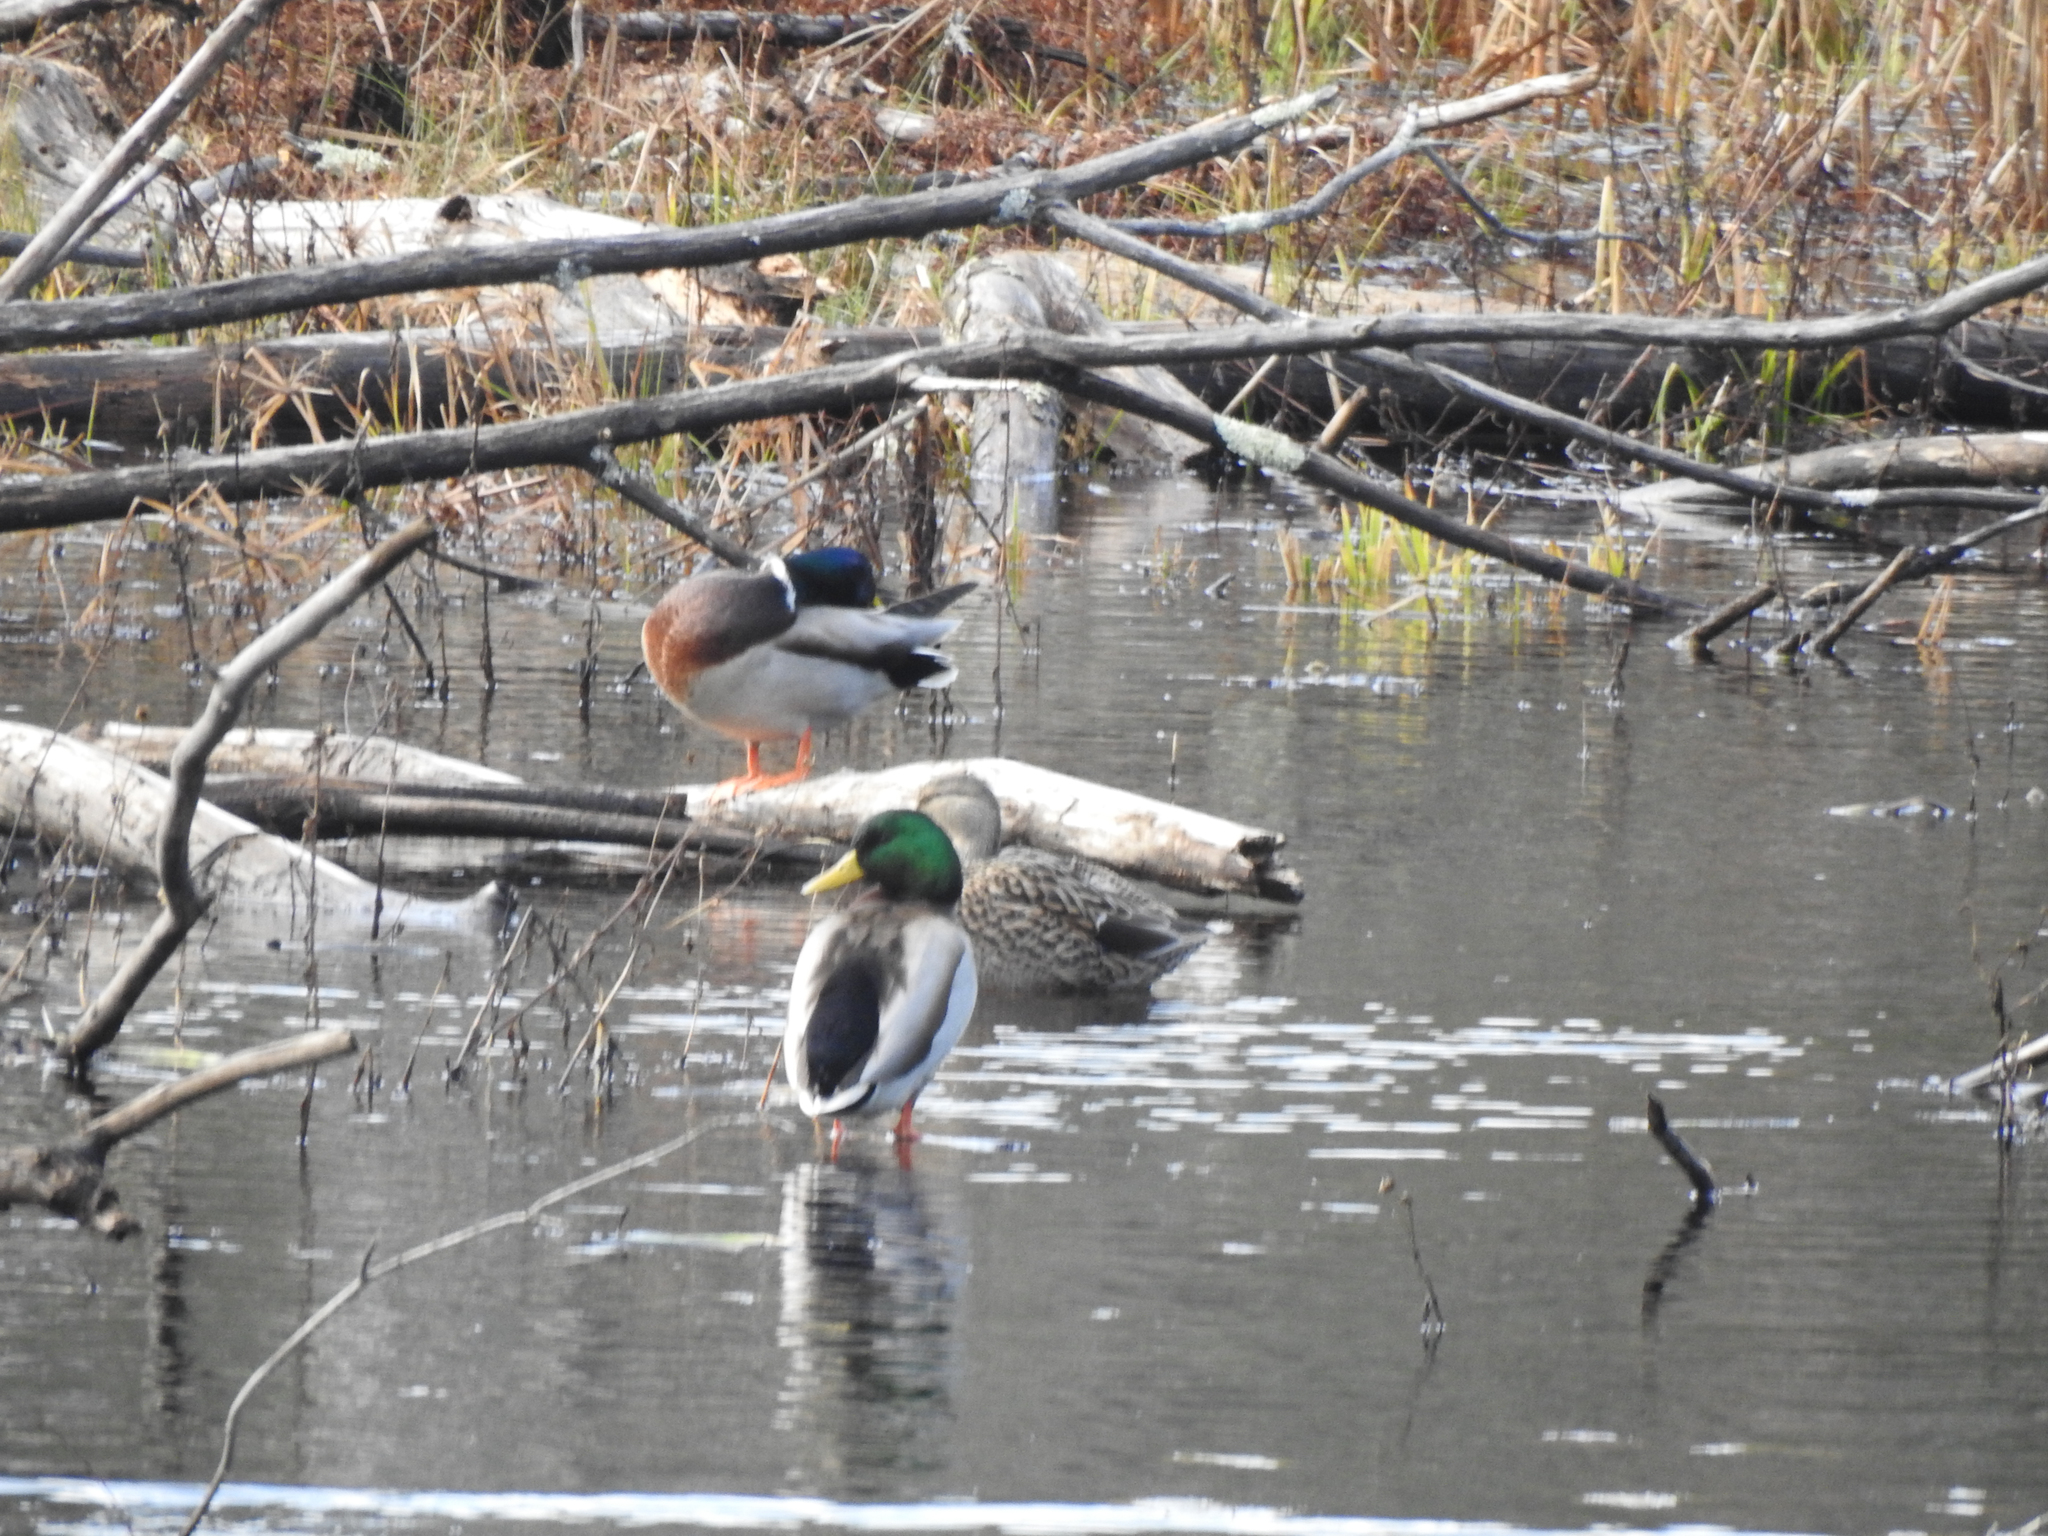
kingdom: Animalia
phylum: Chordata
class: Aves
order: Anseriformes
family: Anatidae
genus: Anas
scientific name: Anas platyrhynchos
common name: Mallard
